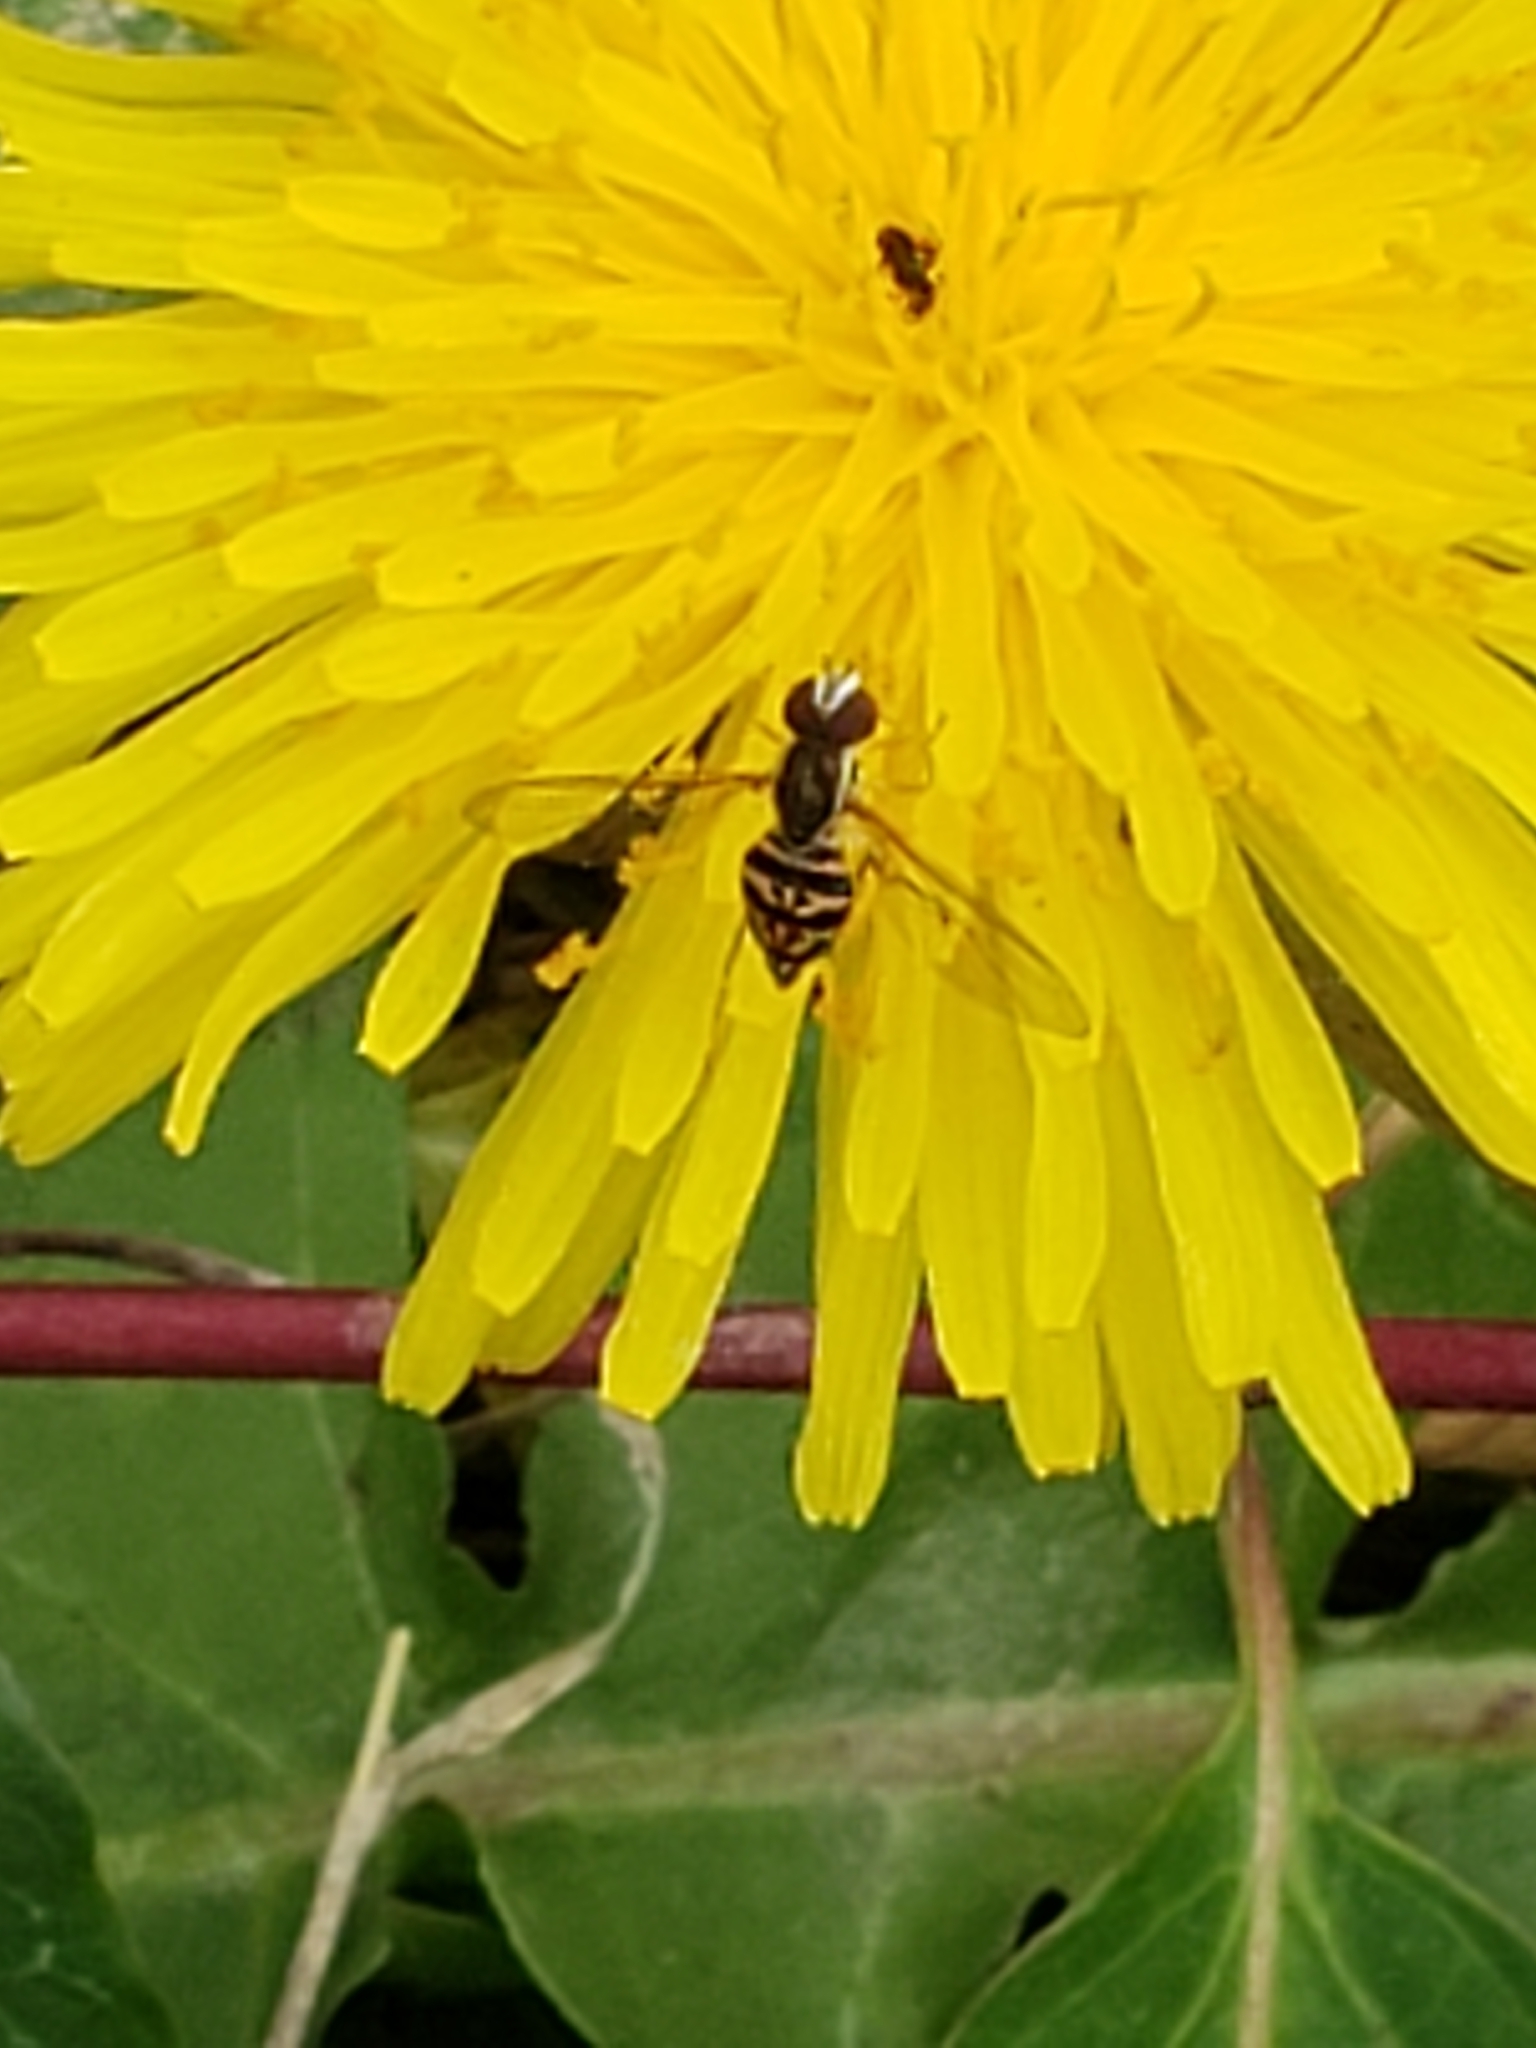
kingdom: Animalia
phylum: Arthropoda
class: Insecta
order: Diptera
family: Syrphidae
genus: Toxomerus
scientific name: Toxomerus geminatus
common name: Eastern calligrapher
